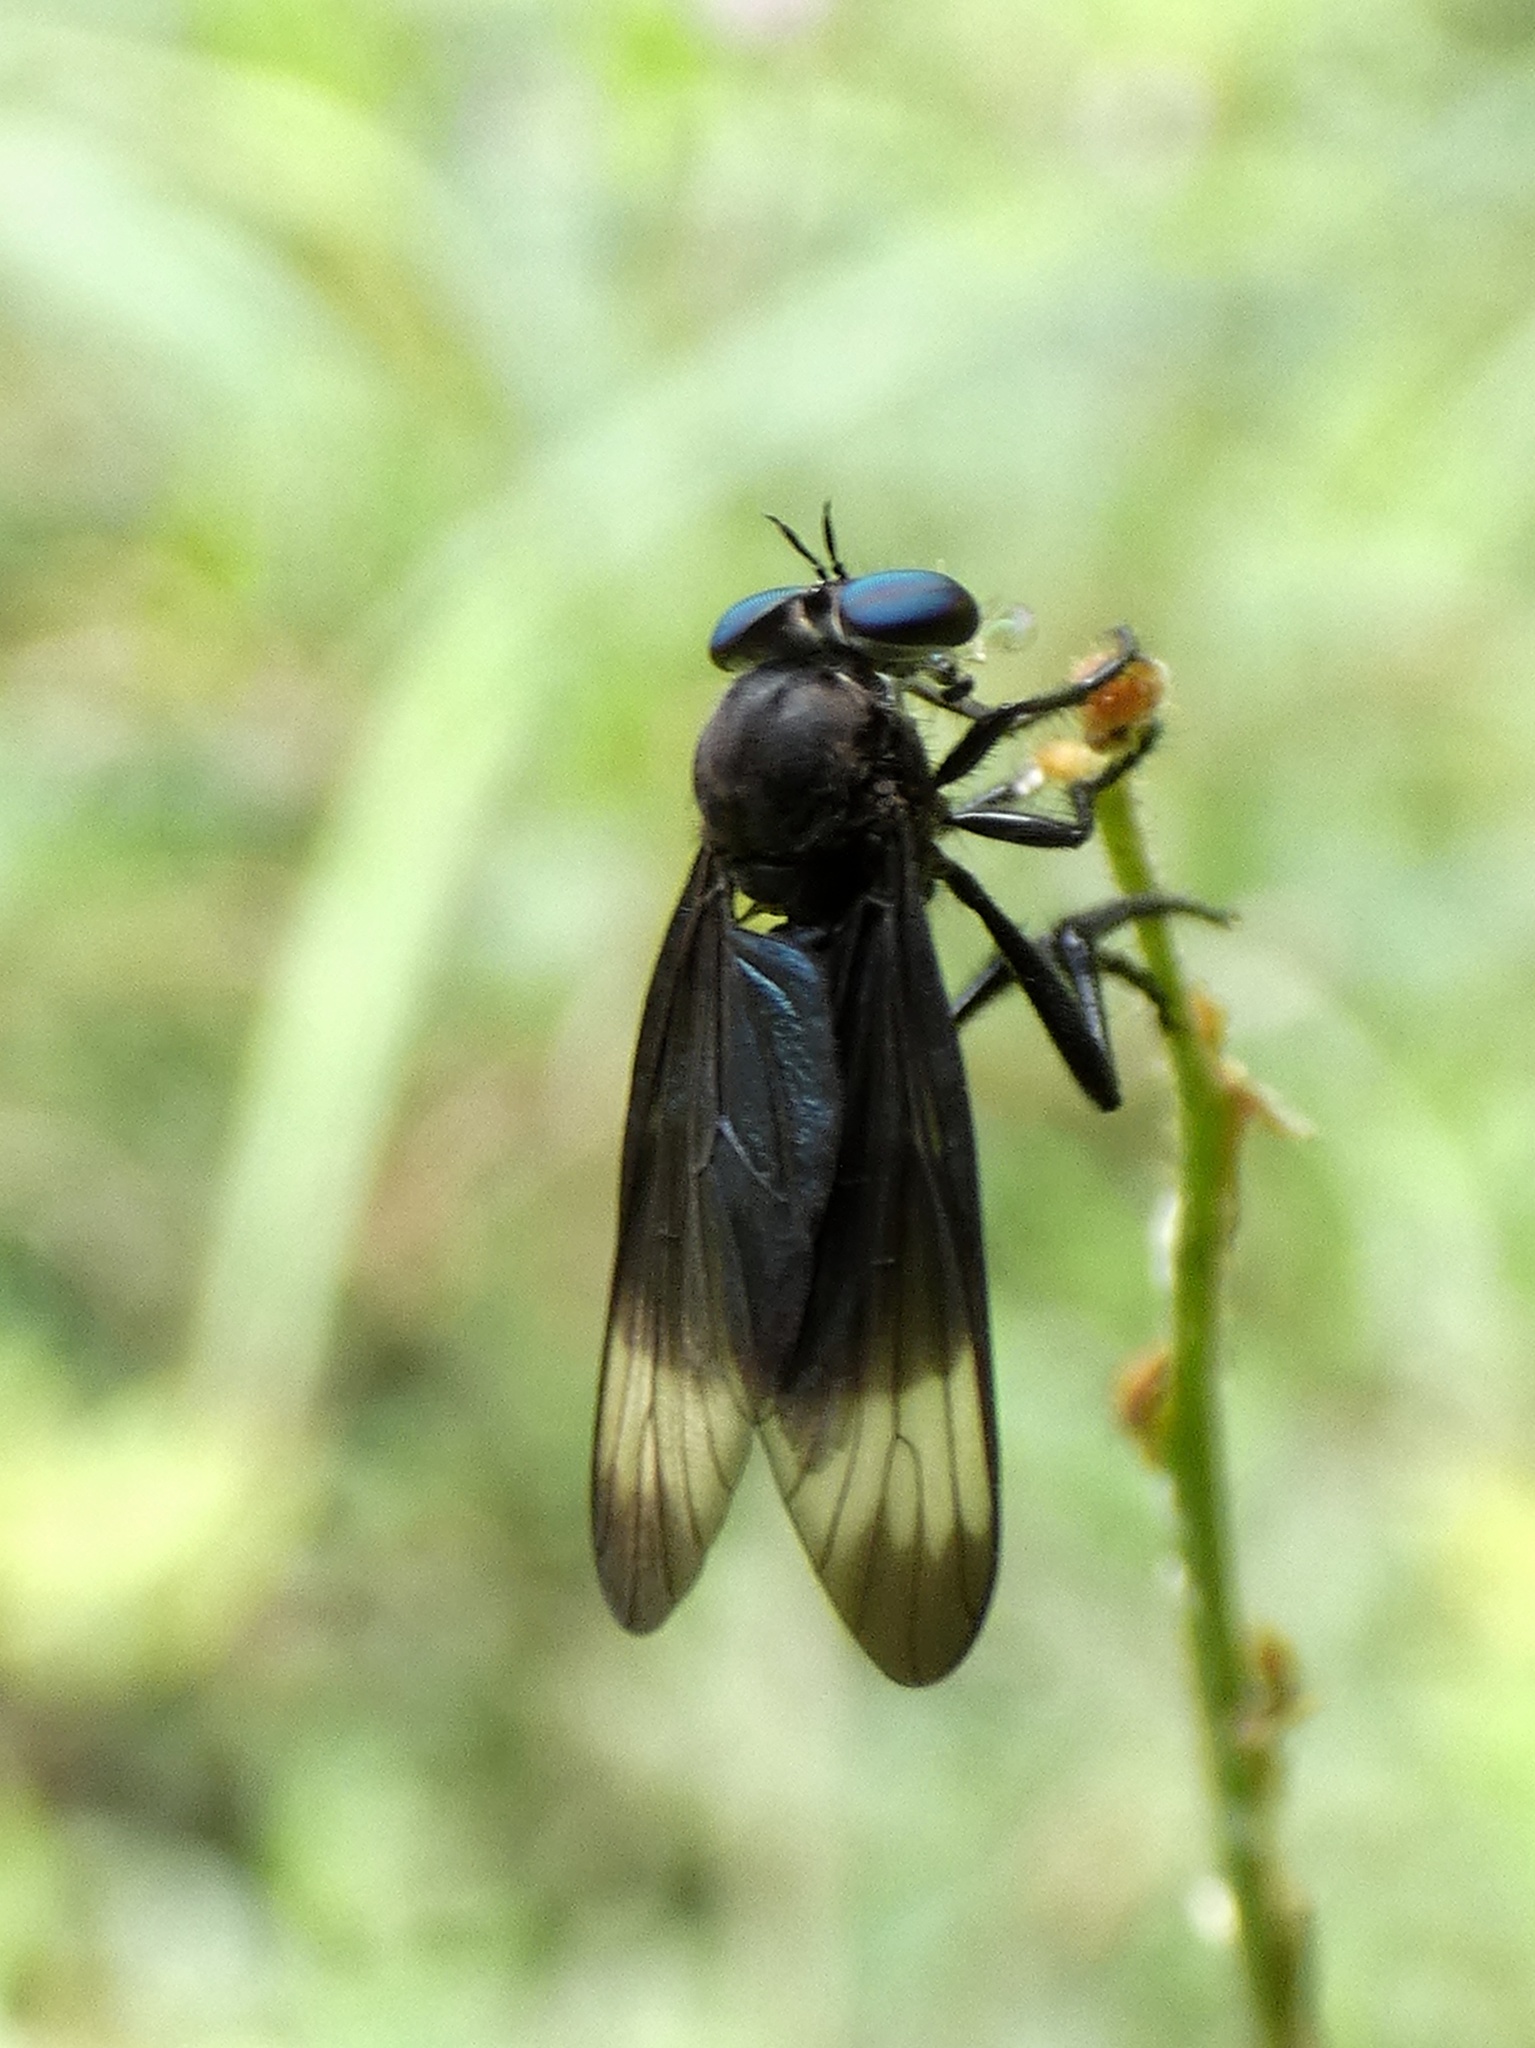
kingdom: Animalia
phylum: Arthropoda
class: Insecta
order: Diptera
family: Asilidae
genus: Holcocephala
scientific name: Holcocephala analis
